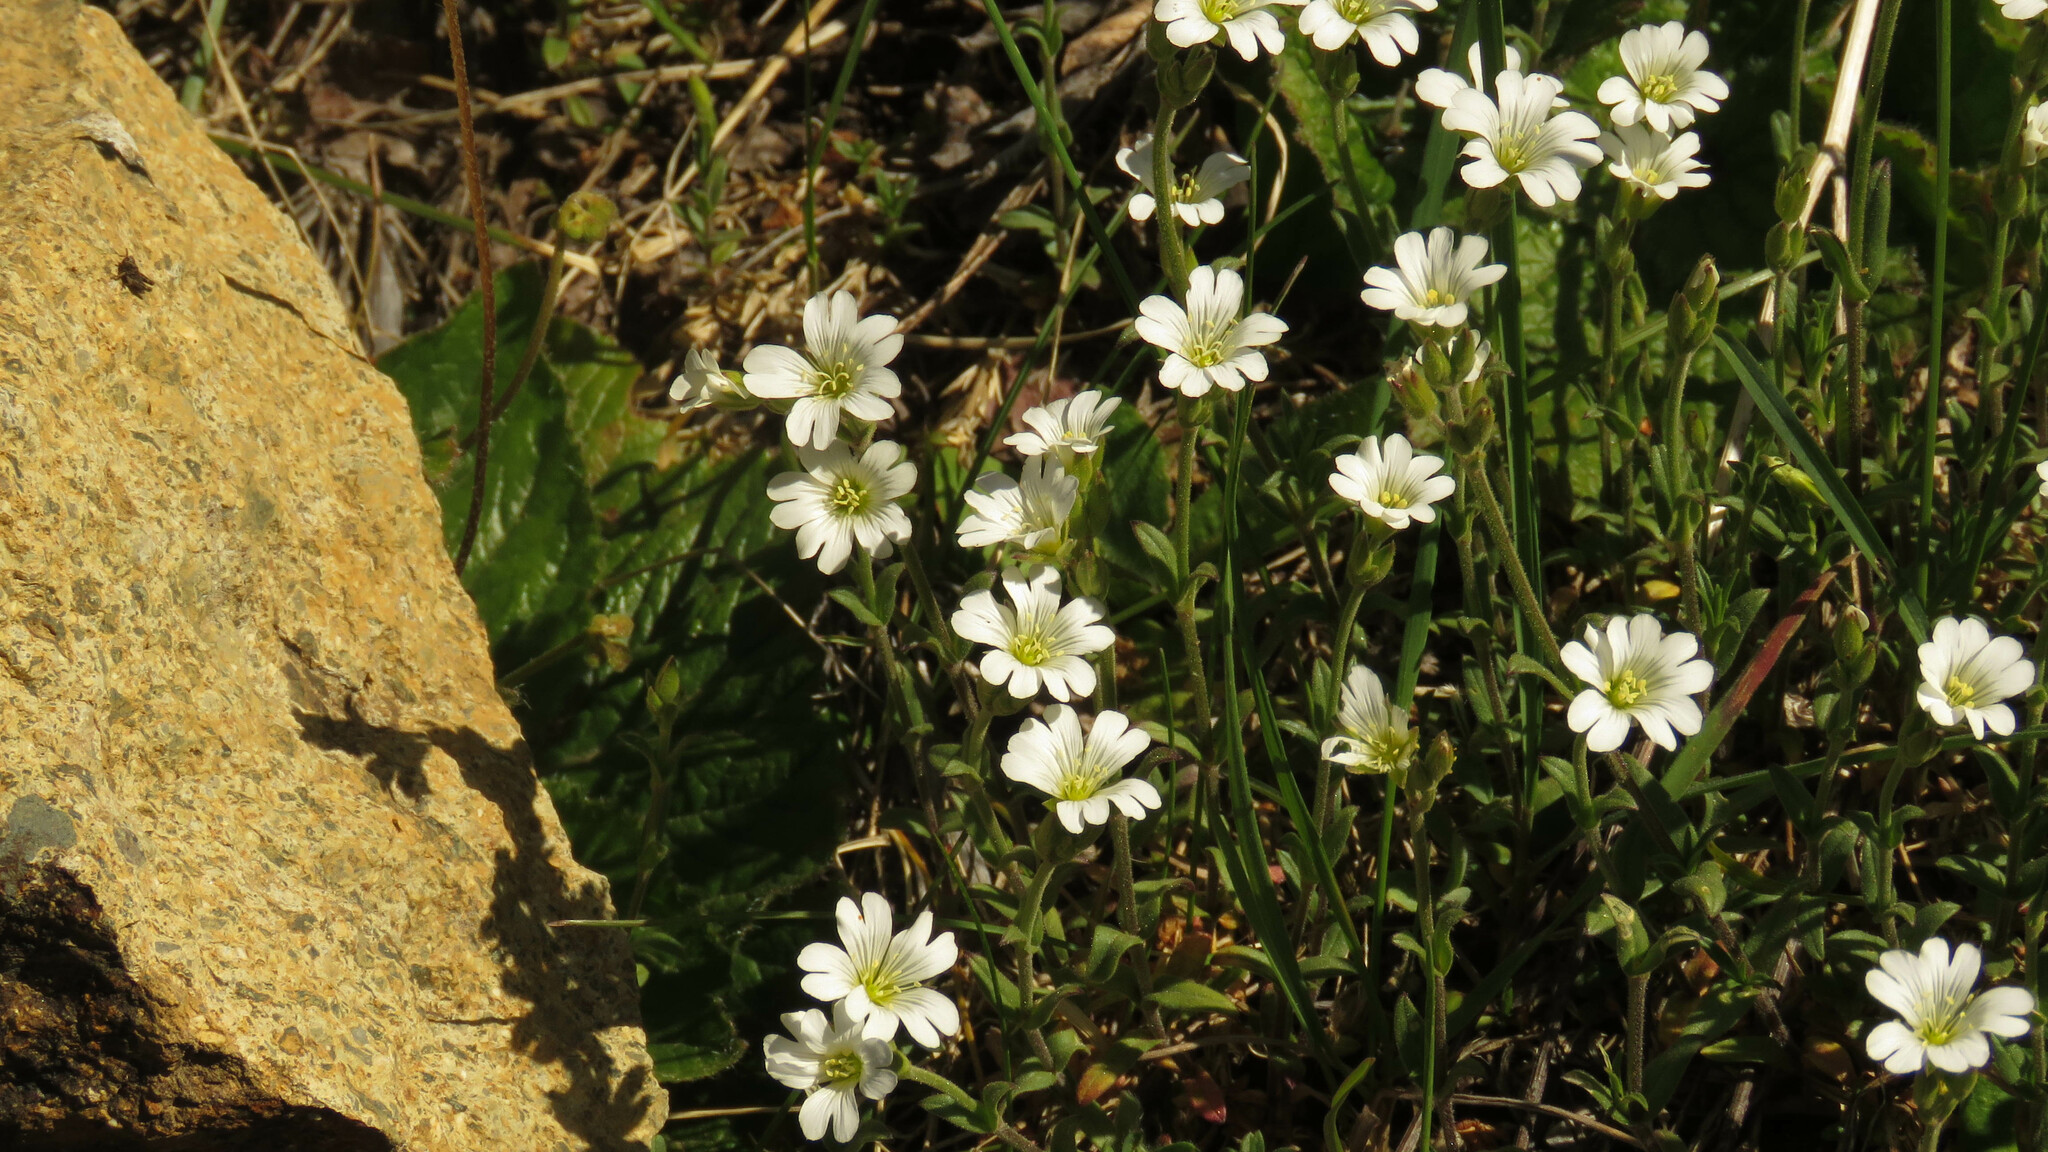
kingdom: Plantae
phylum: Tracheophyta
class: Magnoliopsida
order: Caryophyllales
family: Caryophyllaceae
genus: Cerastium
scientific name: Cerastium arvense
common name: Field mouse-ear
